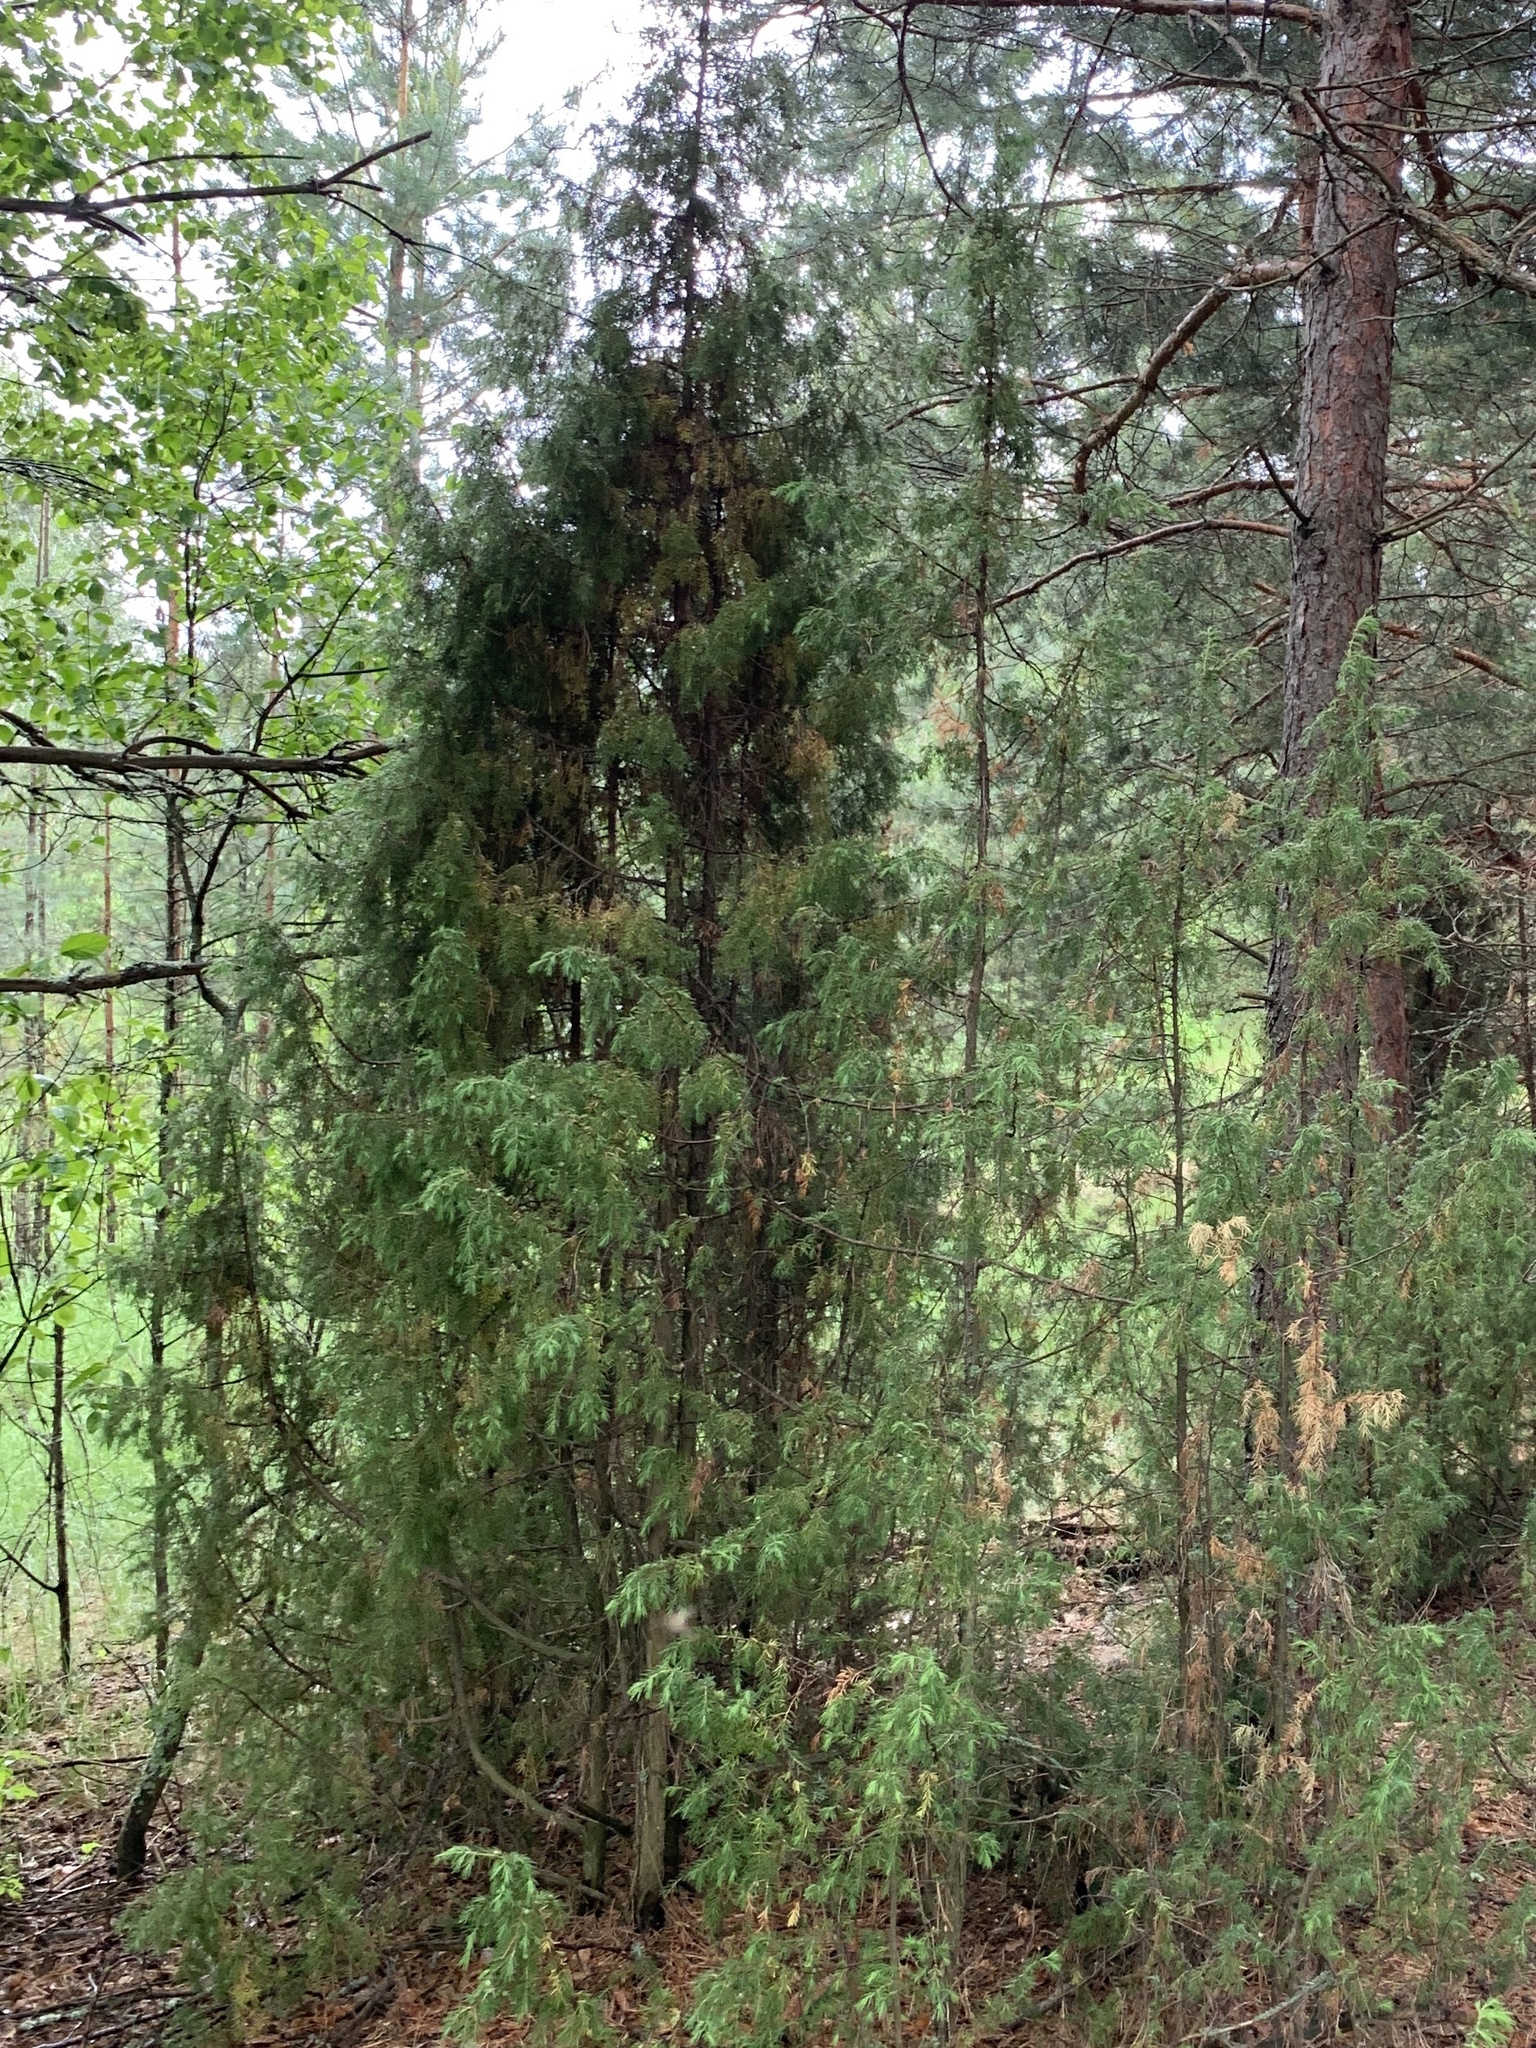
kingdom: Plantae
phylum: Tracheophyta
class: Pinopsida
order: Pinales
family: Cupressaceae
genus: Juniperus
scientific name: Juniperus communis
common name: Common juniper
